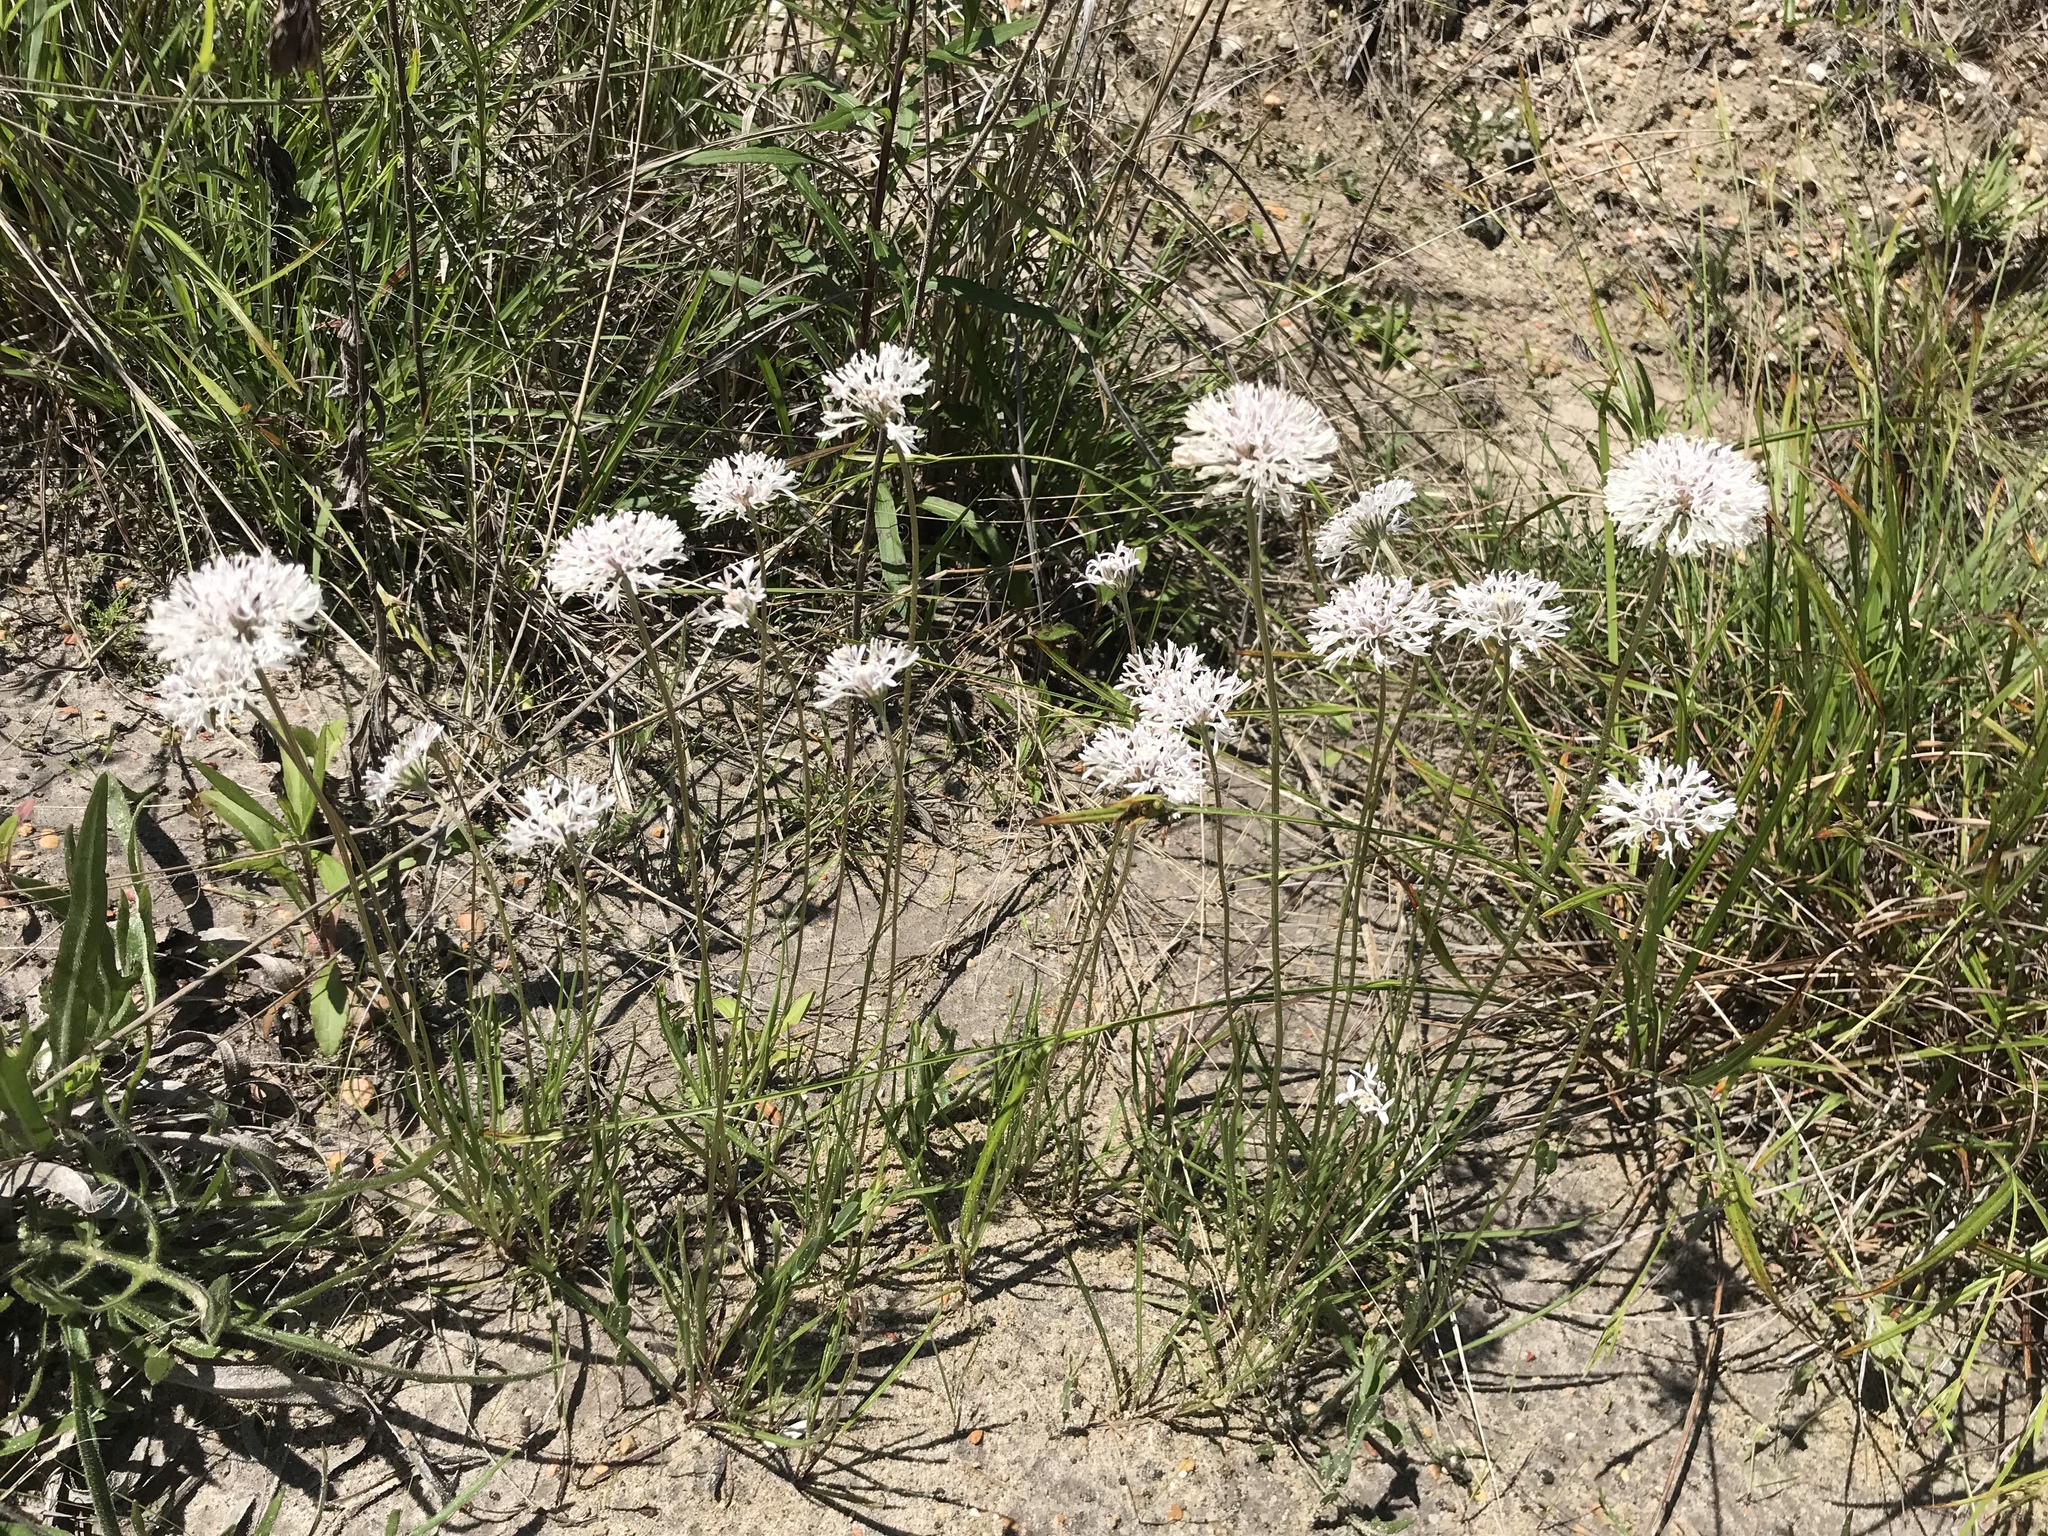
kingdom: Plantae
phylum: Tracheophyta
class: Magnoliopsida
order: Asterales
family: Asteraceae
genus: Marshallia
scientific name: Marshallia caespitosa
